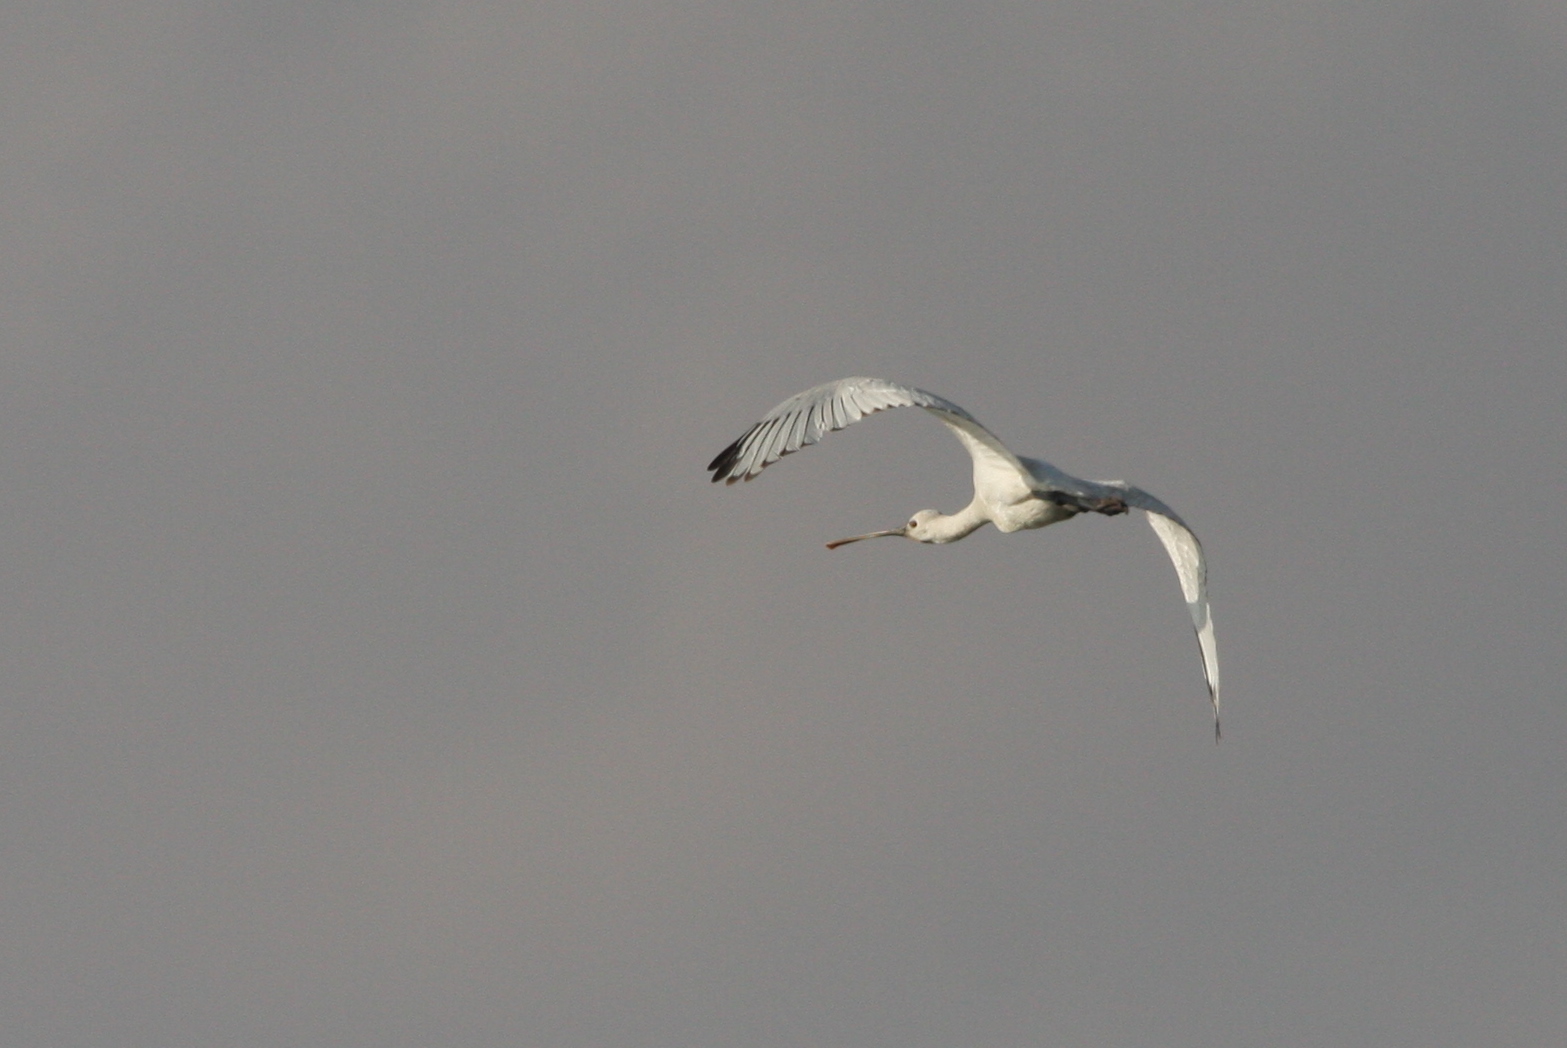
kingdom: Animalia
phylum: Chordata
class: Aves
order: Pelecaniformes
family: Threskiornithidae
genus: Platalea
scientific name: Platalea leucorodia
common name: Eurasian spoonbill
